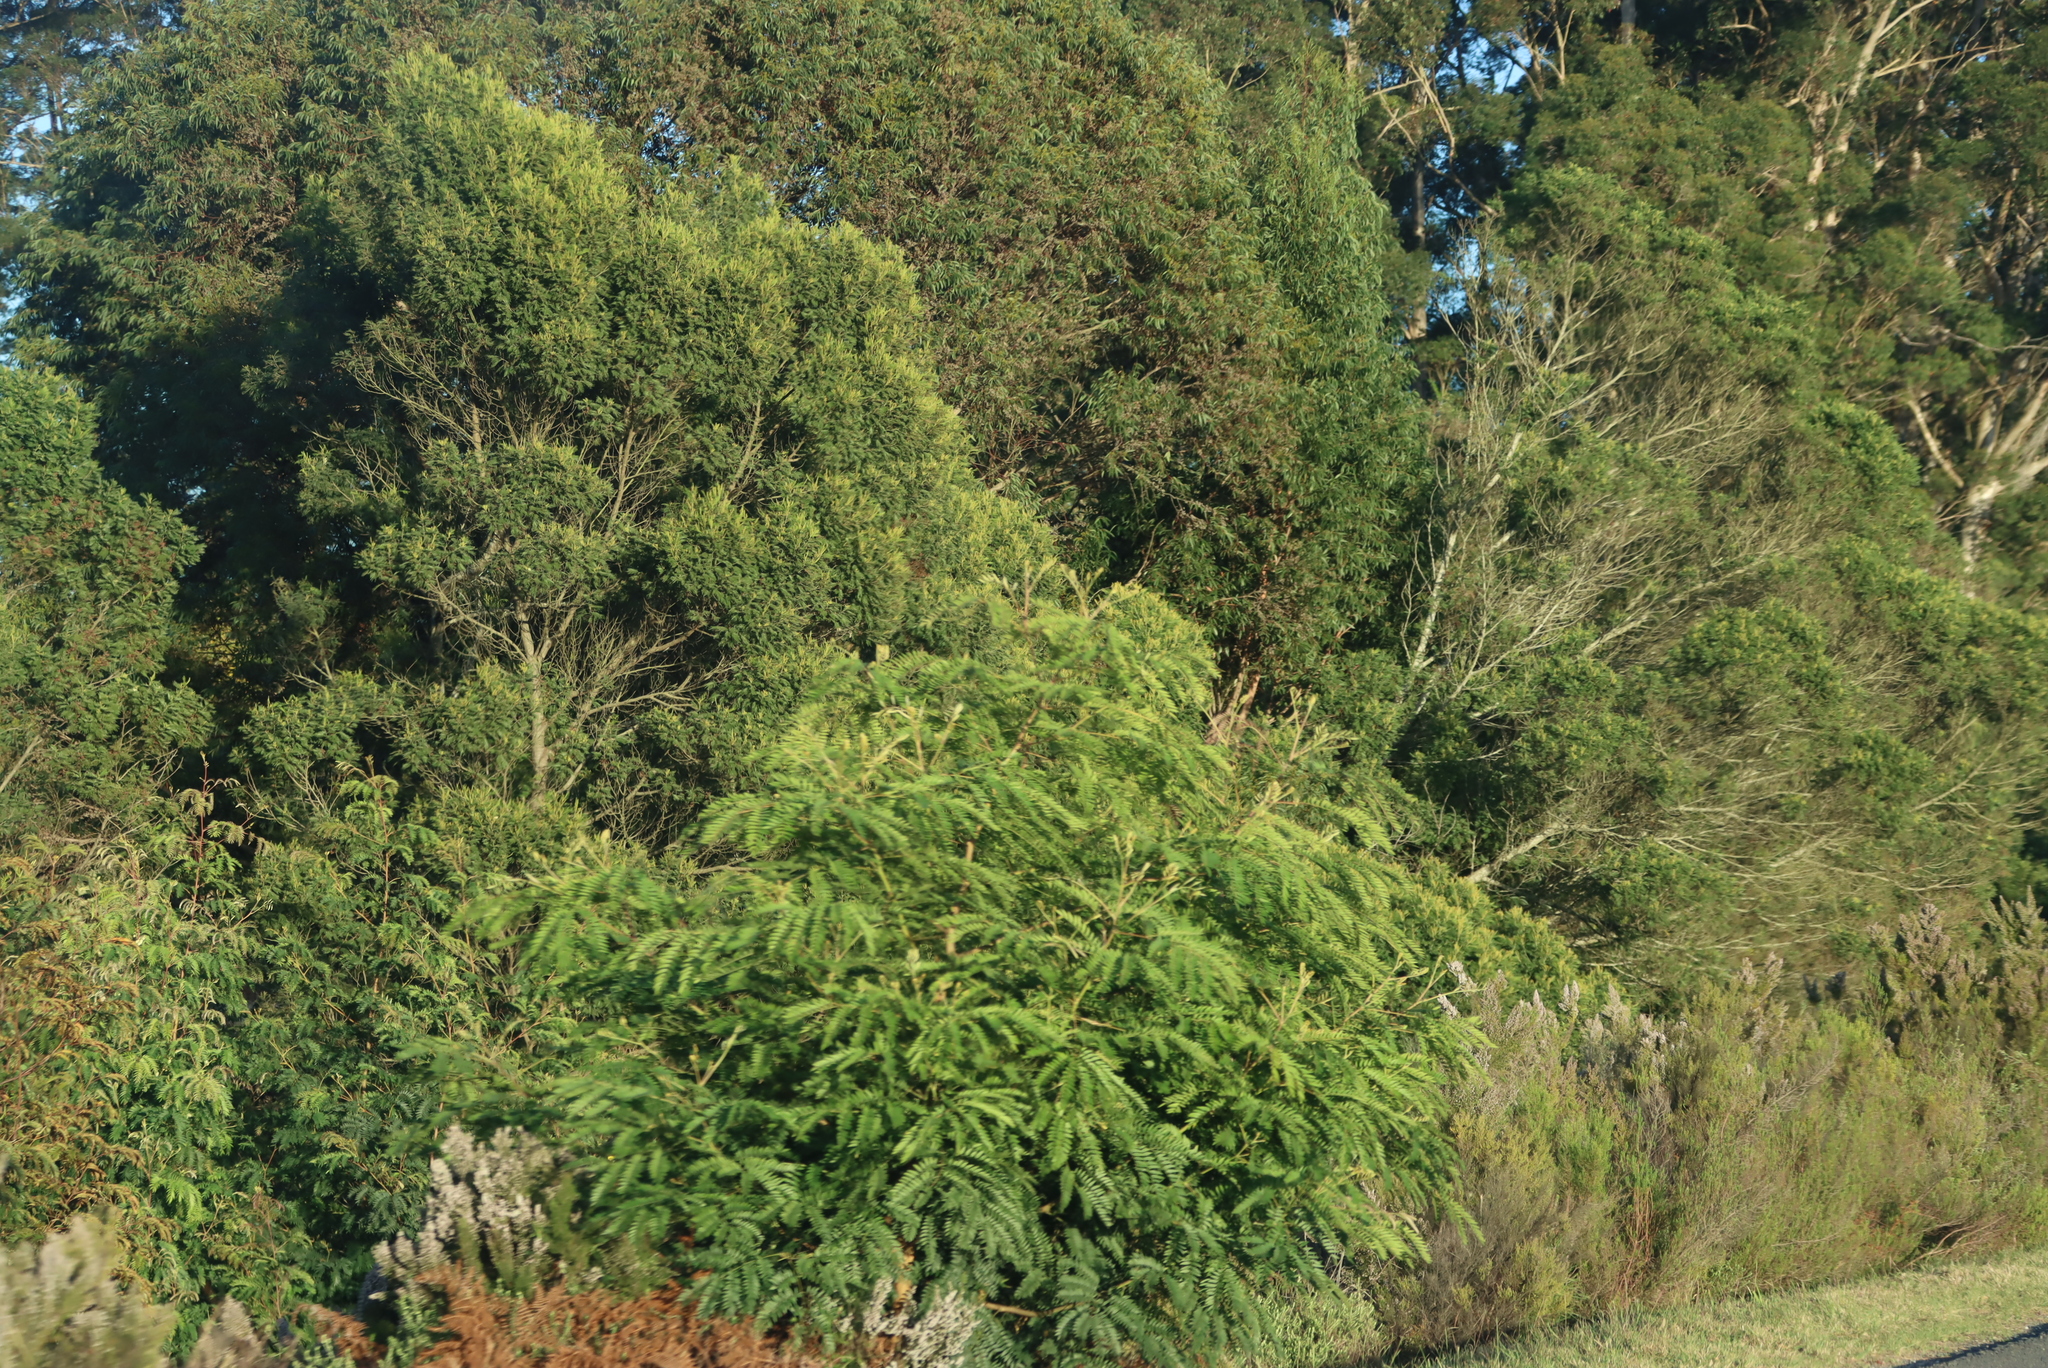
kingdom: Plantae
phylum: Tracheophyta
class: Magnoliopsida
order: Fabales
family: Fabaceae
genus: Acacia
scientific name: Acacia elata
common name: Cedar wattle
